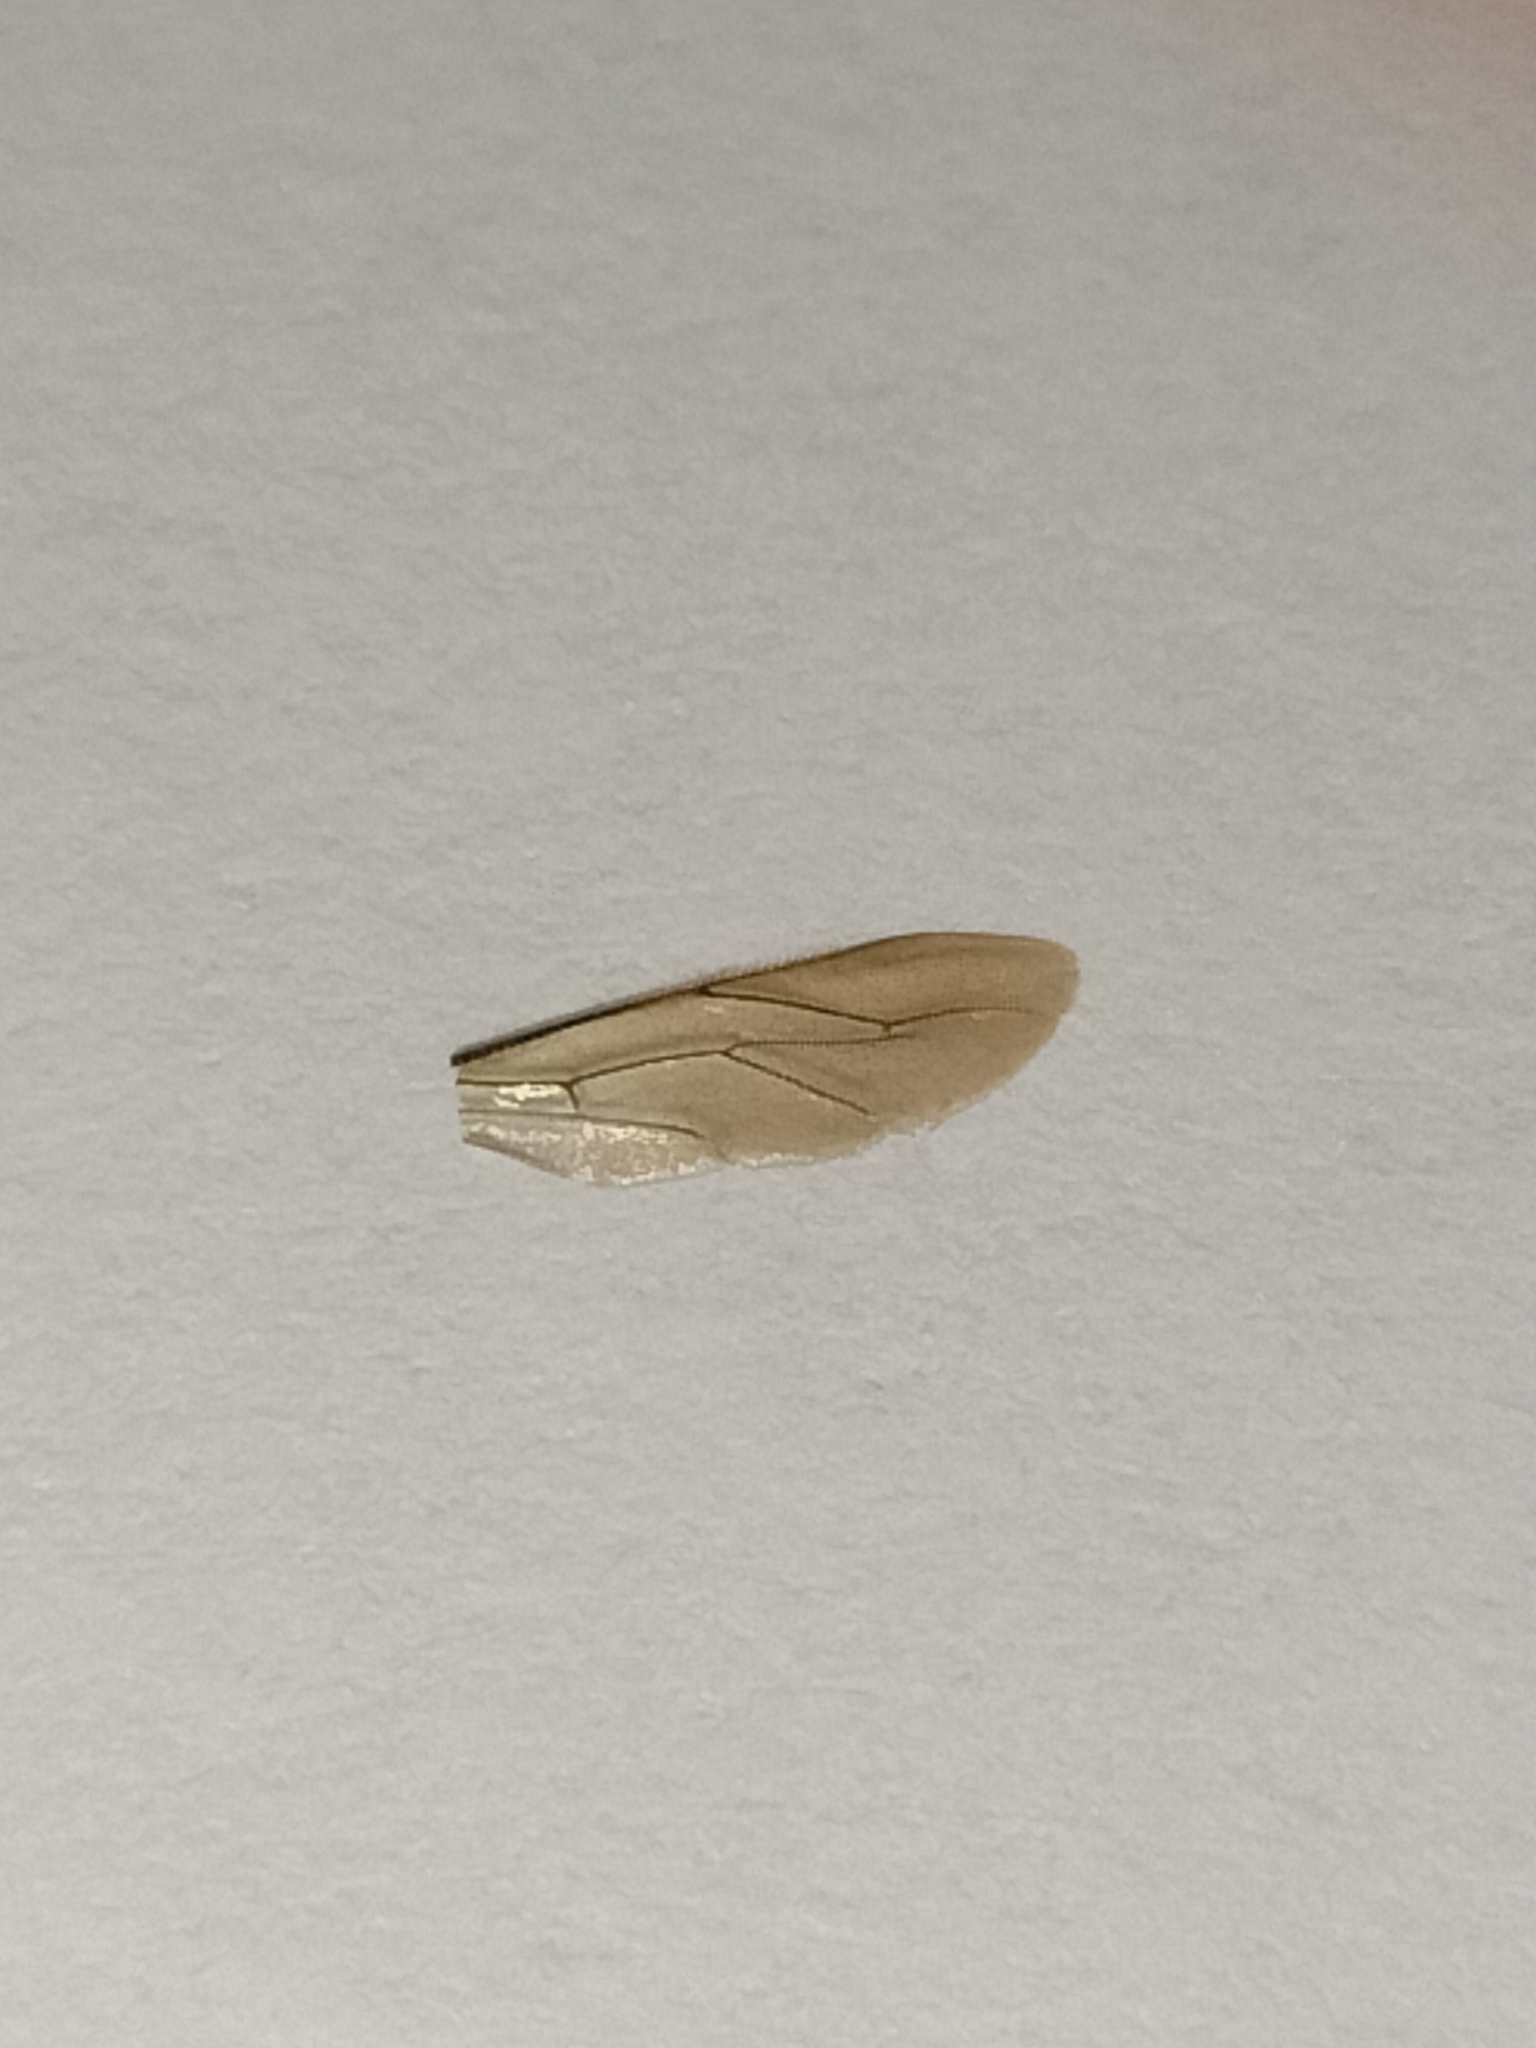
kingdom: Animalia
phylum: Arthropoda
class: Insecta
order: Hymenoptera
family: Apidae
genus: Apis
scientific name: Apis cerana
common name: Honey bee
